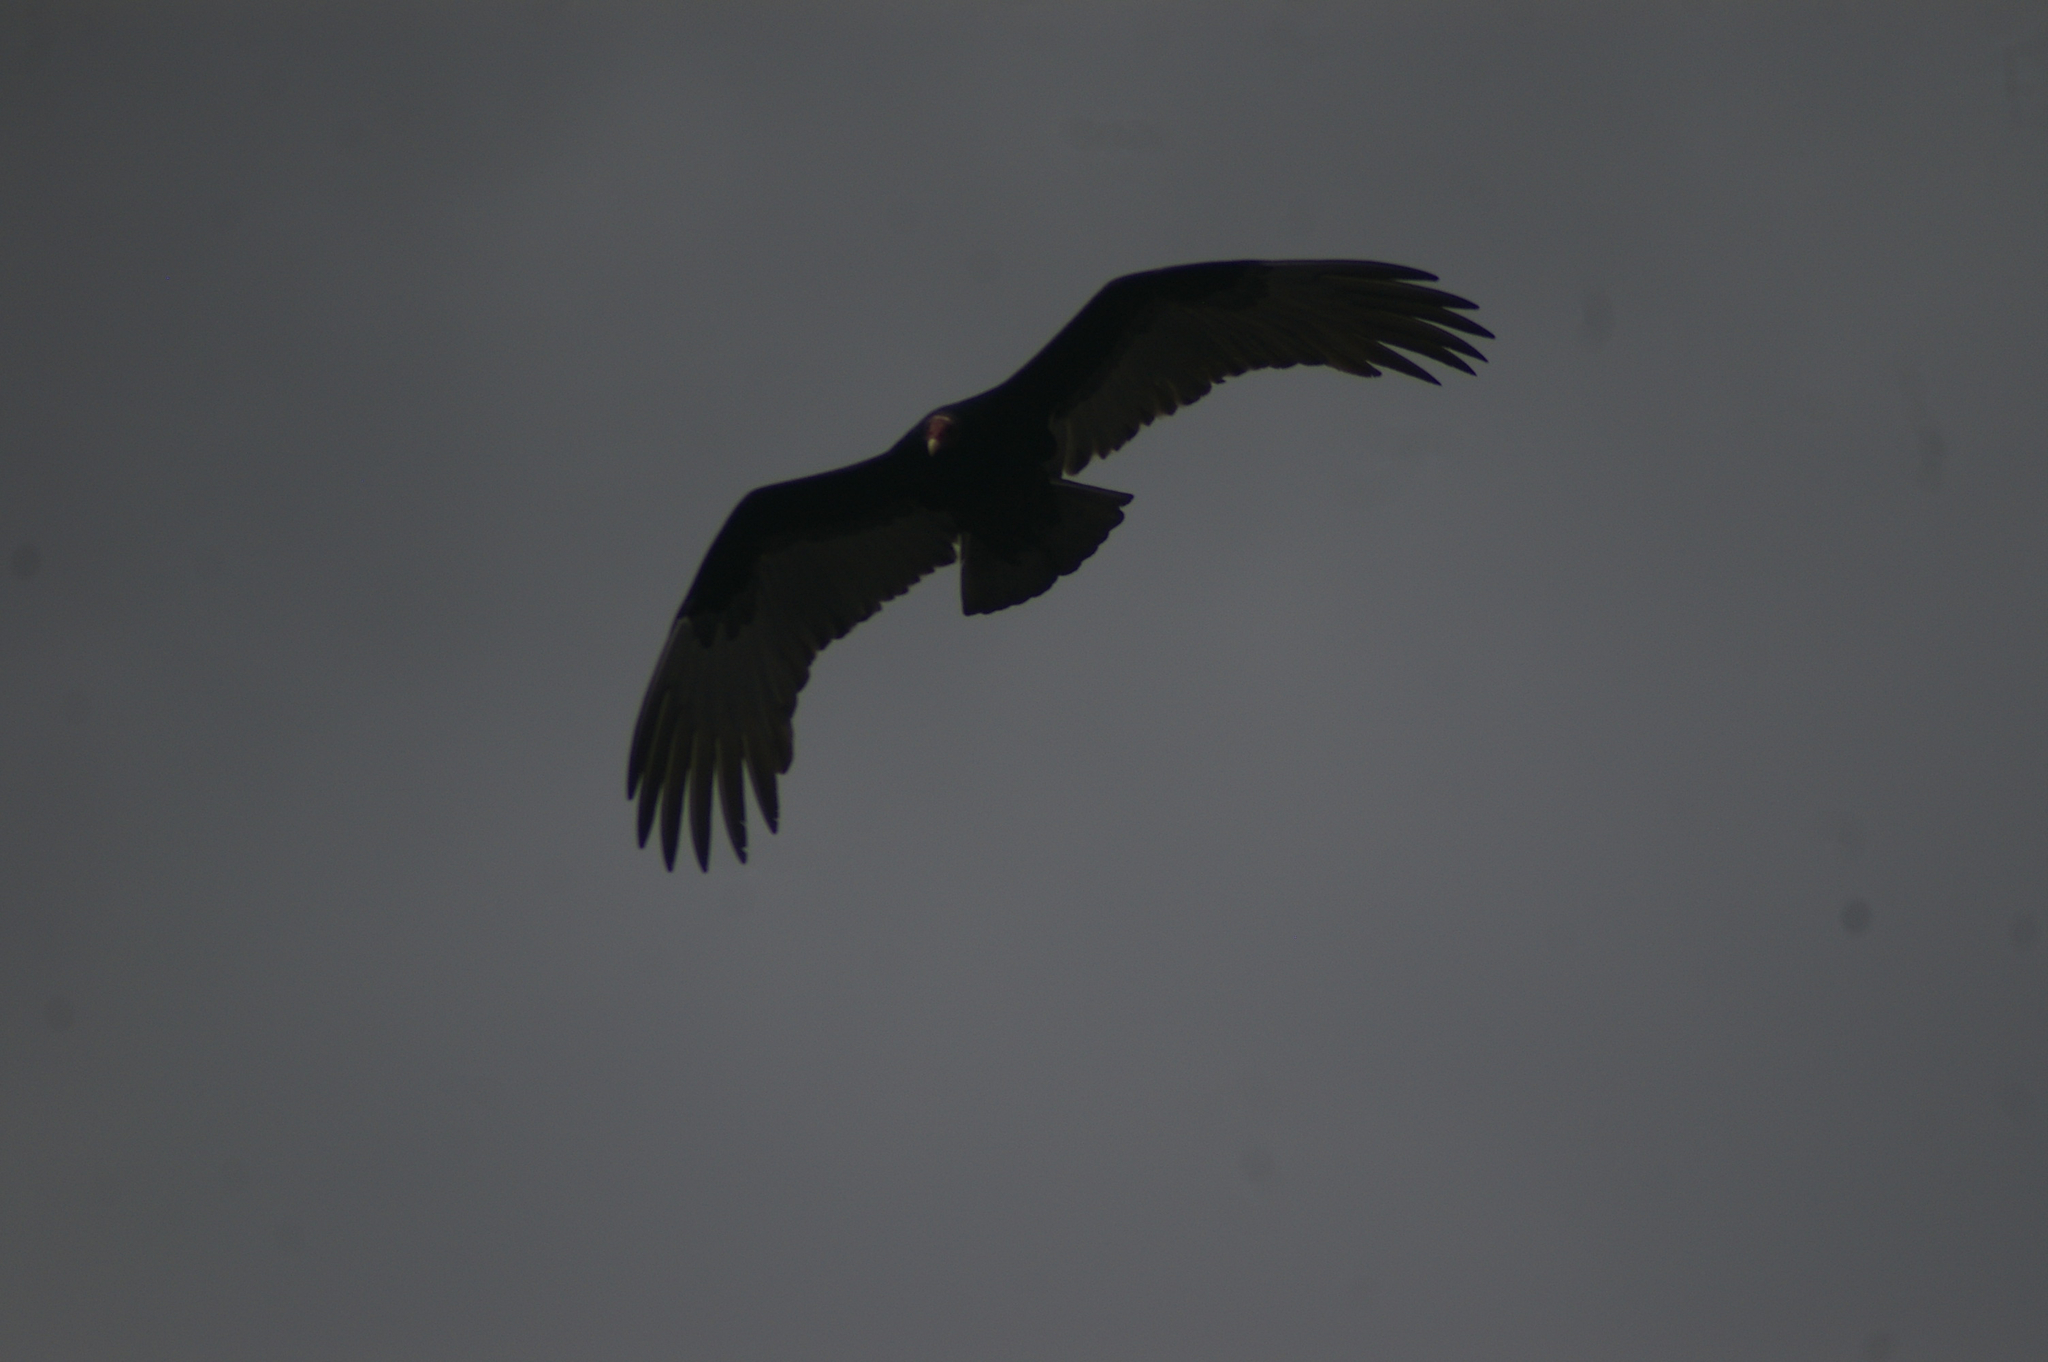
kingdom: Animalia
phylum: Chordata
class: Aves
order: Accipitriformes
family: Cathartidae
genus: Cathartes
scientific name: Cathartes aura
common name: Turkey vulture
